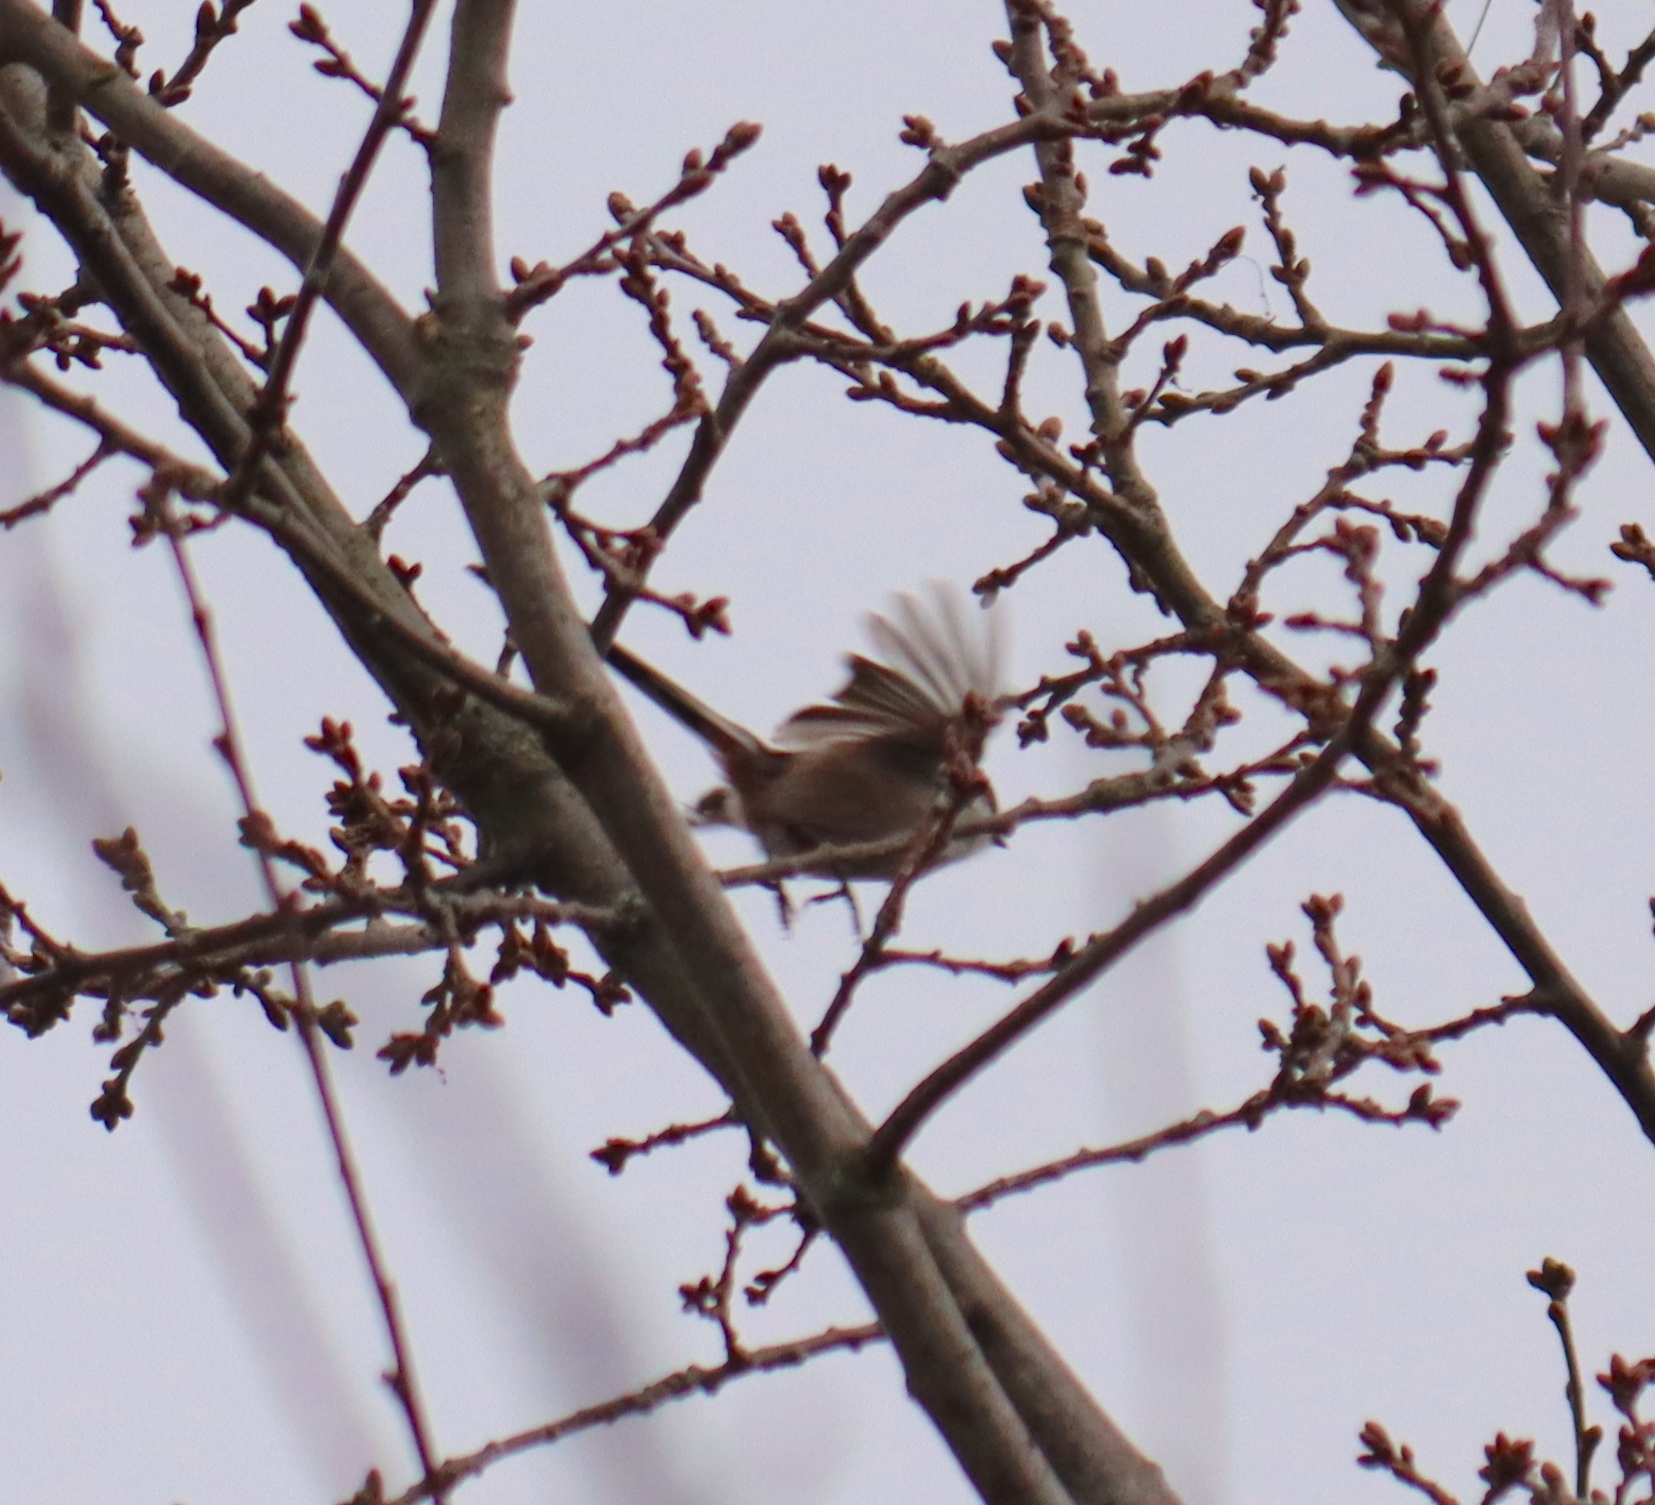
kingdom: Animalia
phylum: Chordata
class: Aves
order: Passeriformes
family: Aegithalidae
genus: Aegithalos
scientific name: Aegithalos caudatus
